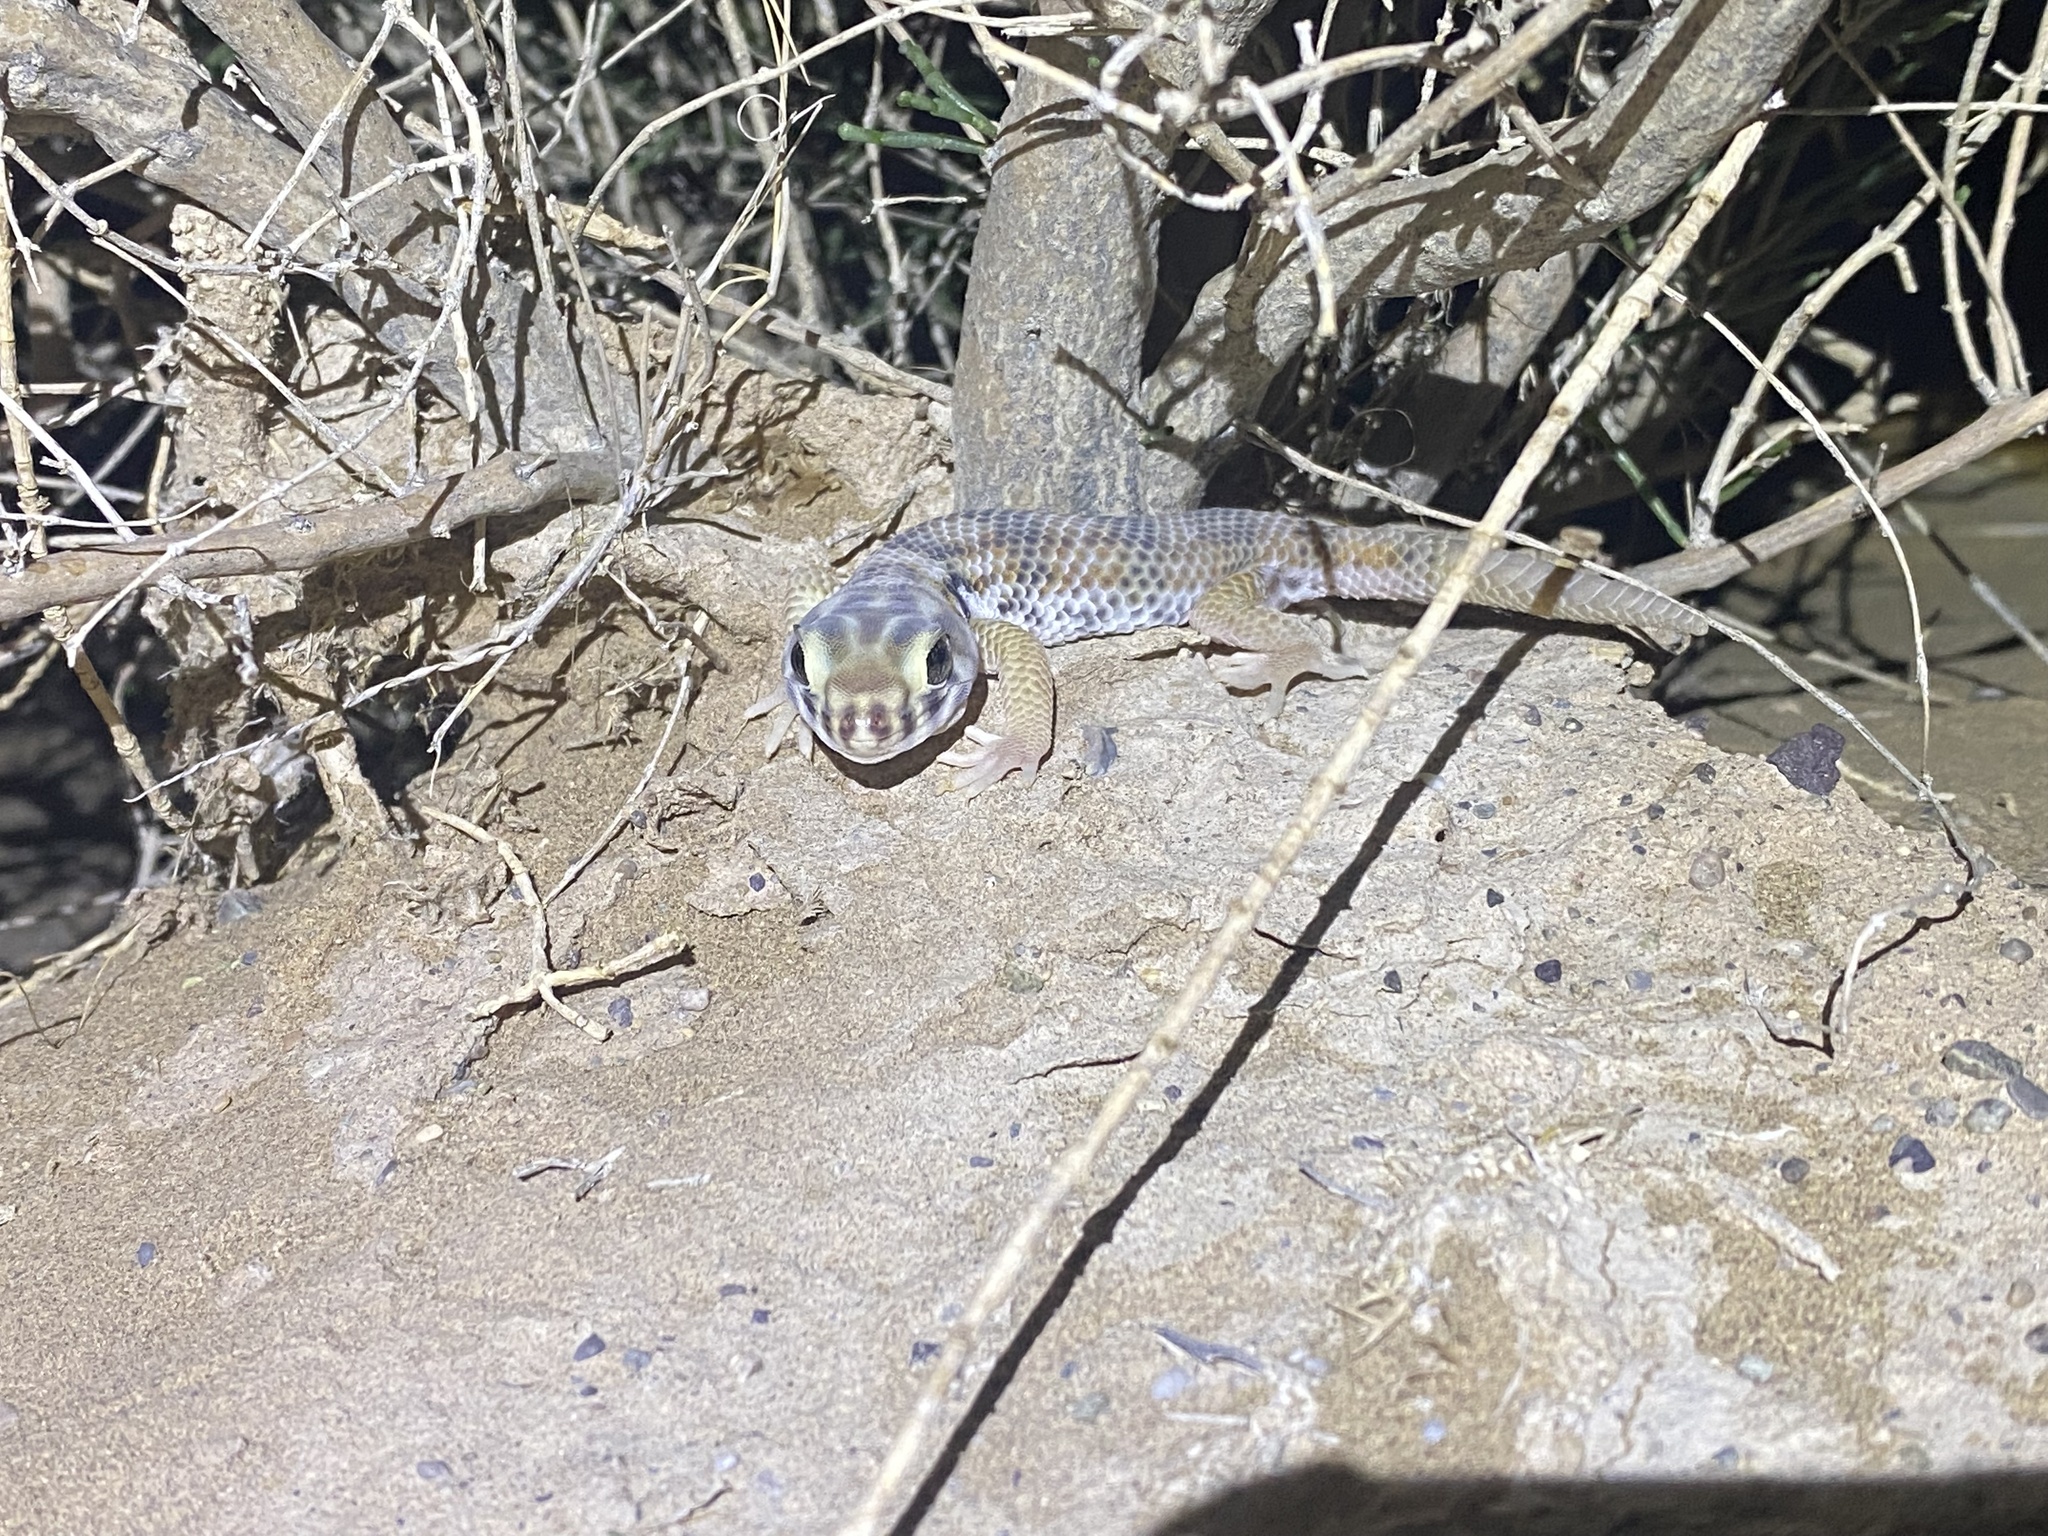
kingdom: Animalia
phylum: Chordata
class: Squamata
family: Sphaerodactylidae
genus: Teratoscincus
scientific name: Teratoscincus keyserlingii
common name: Frog-eyed gecko
